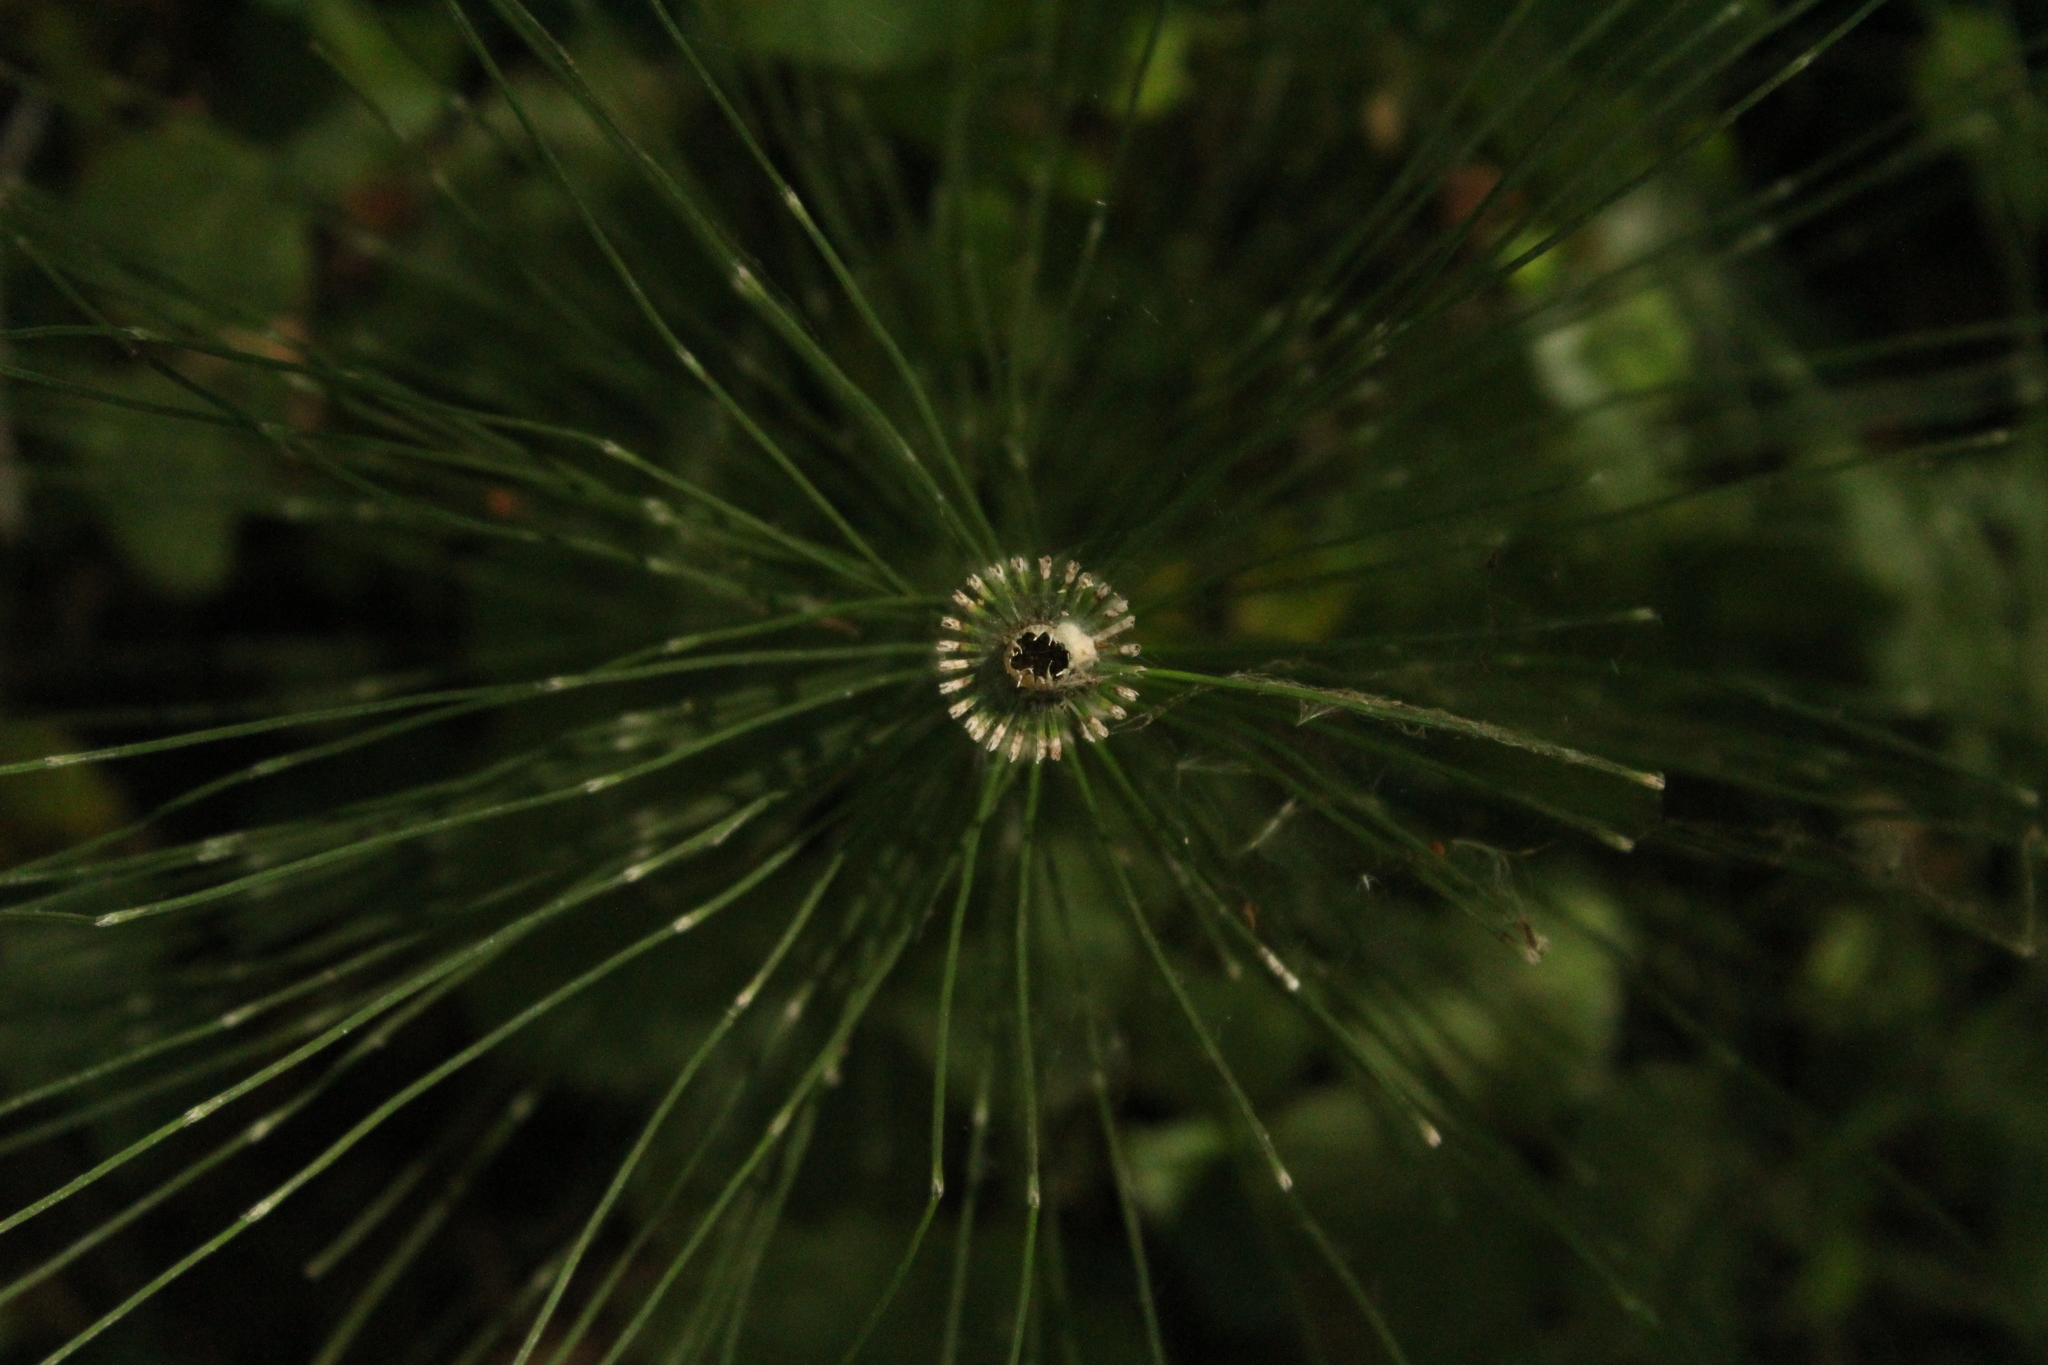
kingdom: Plantae
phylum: Tracheophyta
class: Polypodiopsida
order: Equisetales
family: Equisetaceae
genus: Equisetum
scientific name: Equisetum telmateia
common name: Great horsetail
